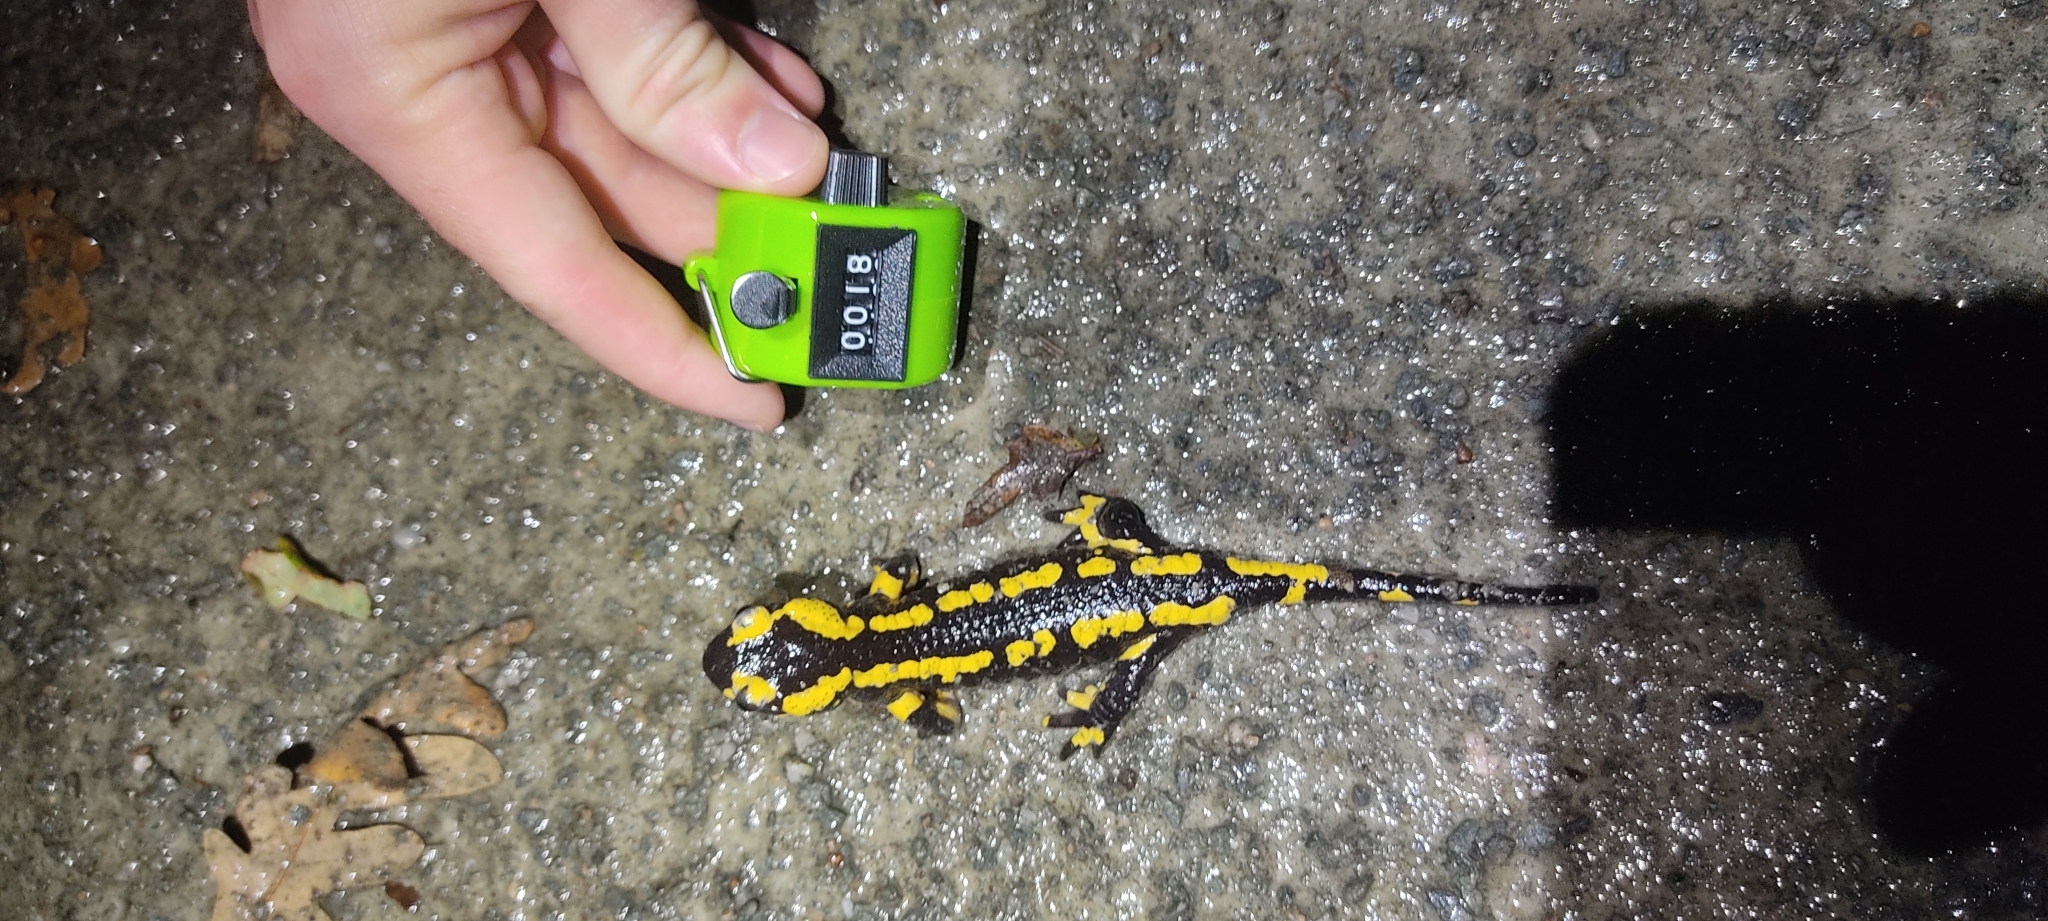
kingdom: Animalia
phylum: Chordata
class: Amphibia
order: Caudata
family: Salamandridae
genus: Salamandra
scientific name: Salamandra salamandra
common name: Fire salamander
